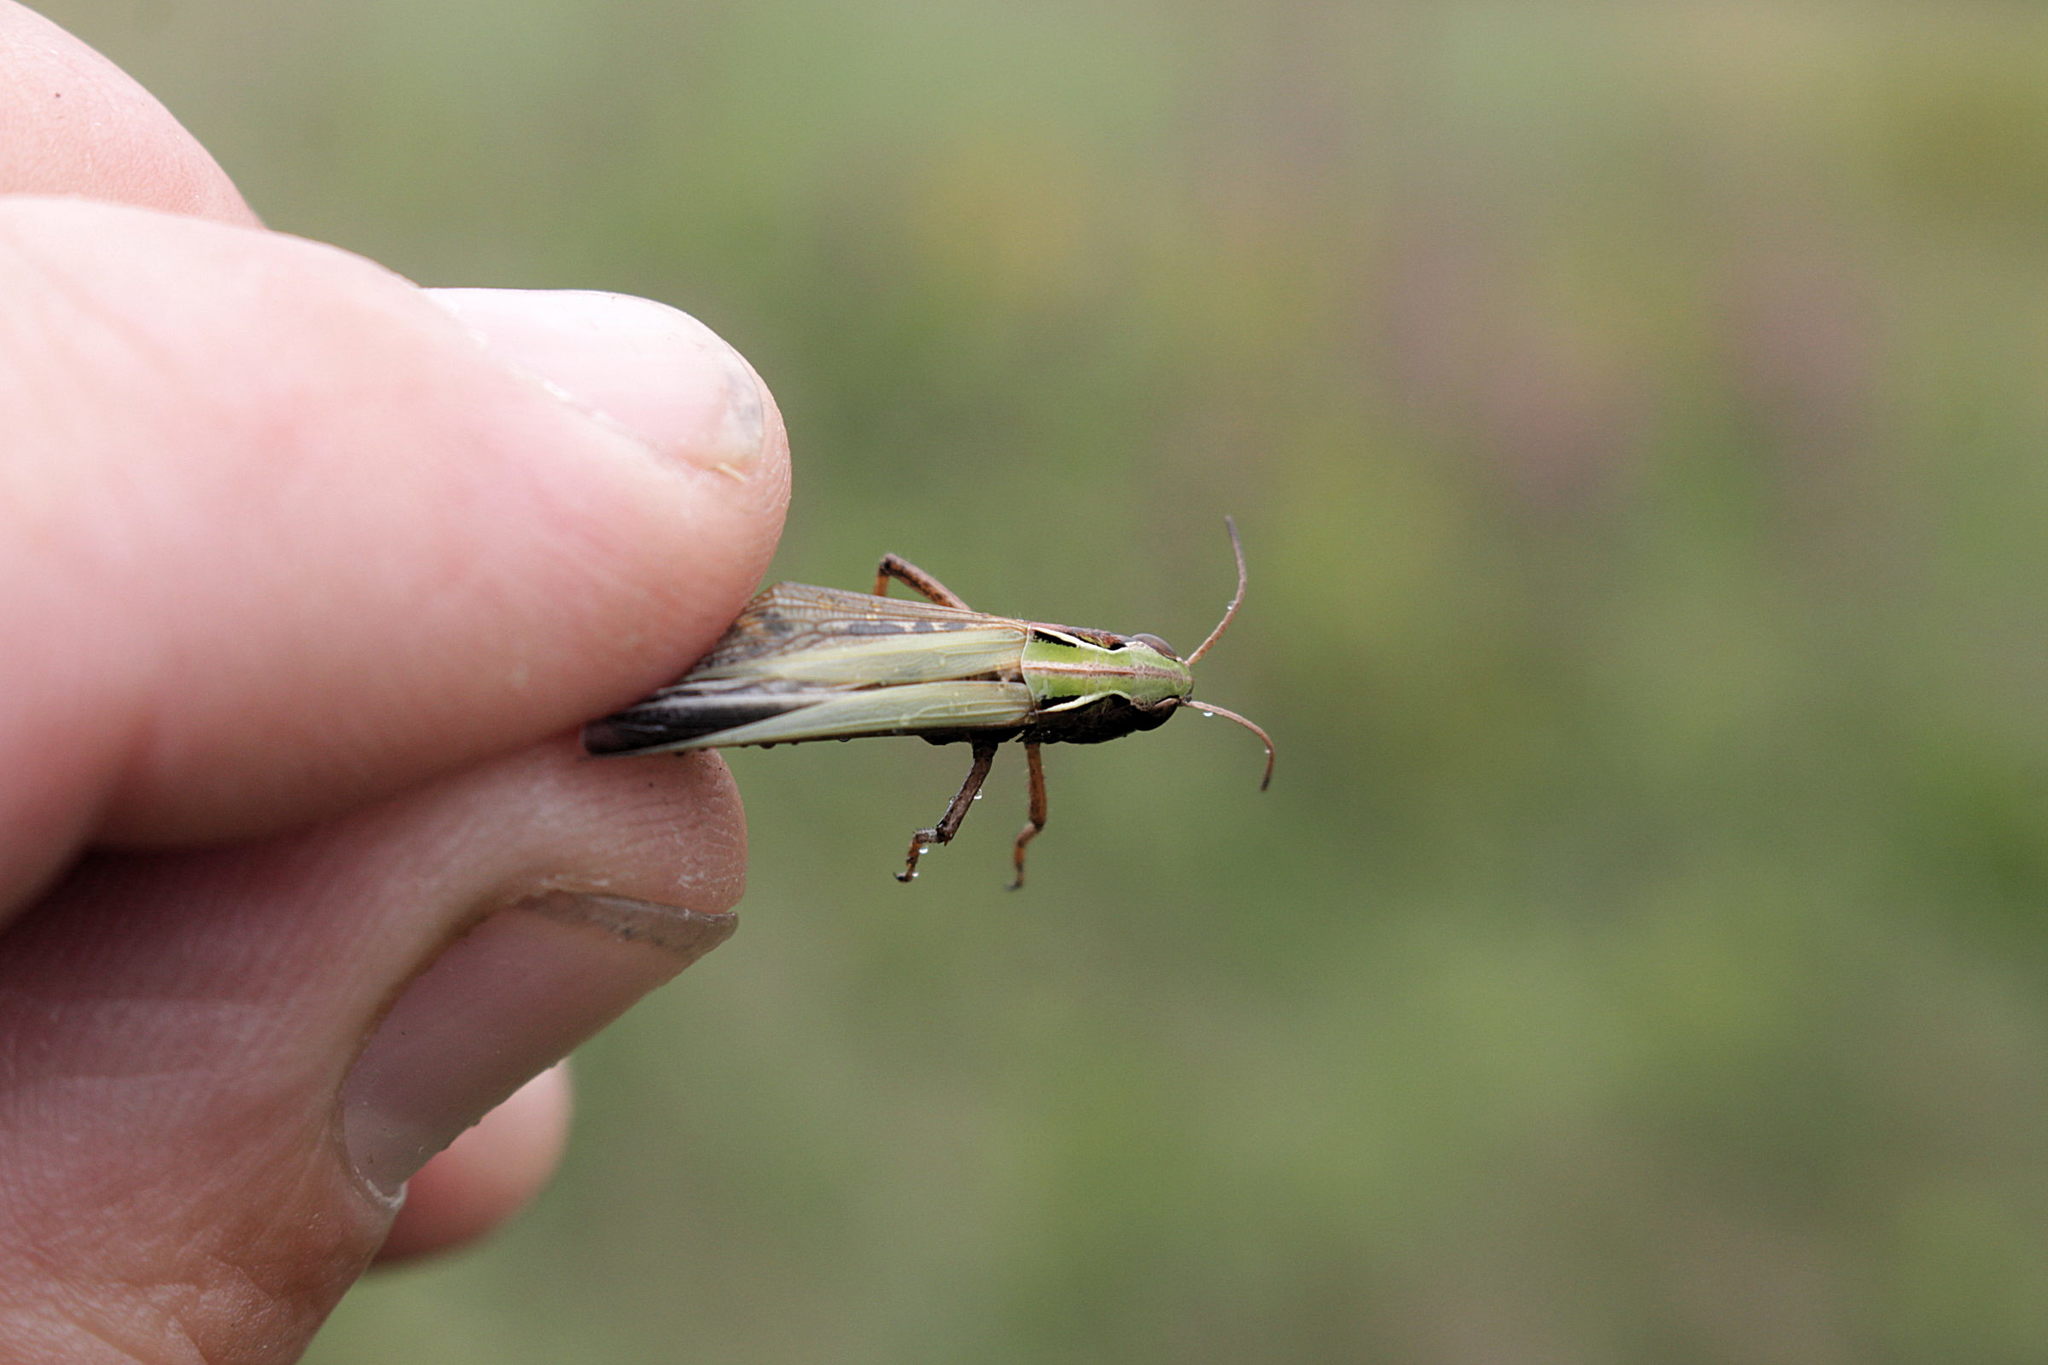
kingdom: Animalia
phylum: Arthropoda
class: Insecta
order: Orthoptera
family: Acrididae
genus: Omocestus
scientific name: Omocestus viridulus
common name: Common green grasshopper
